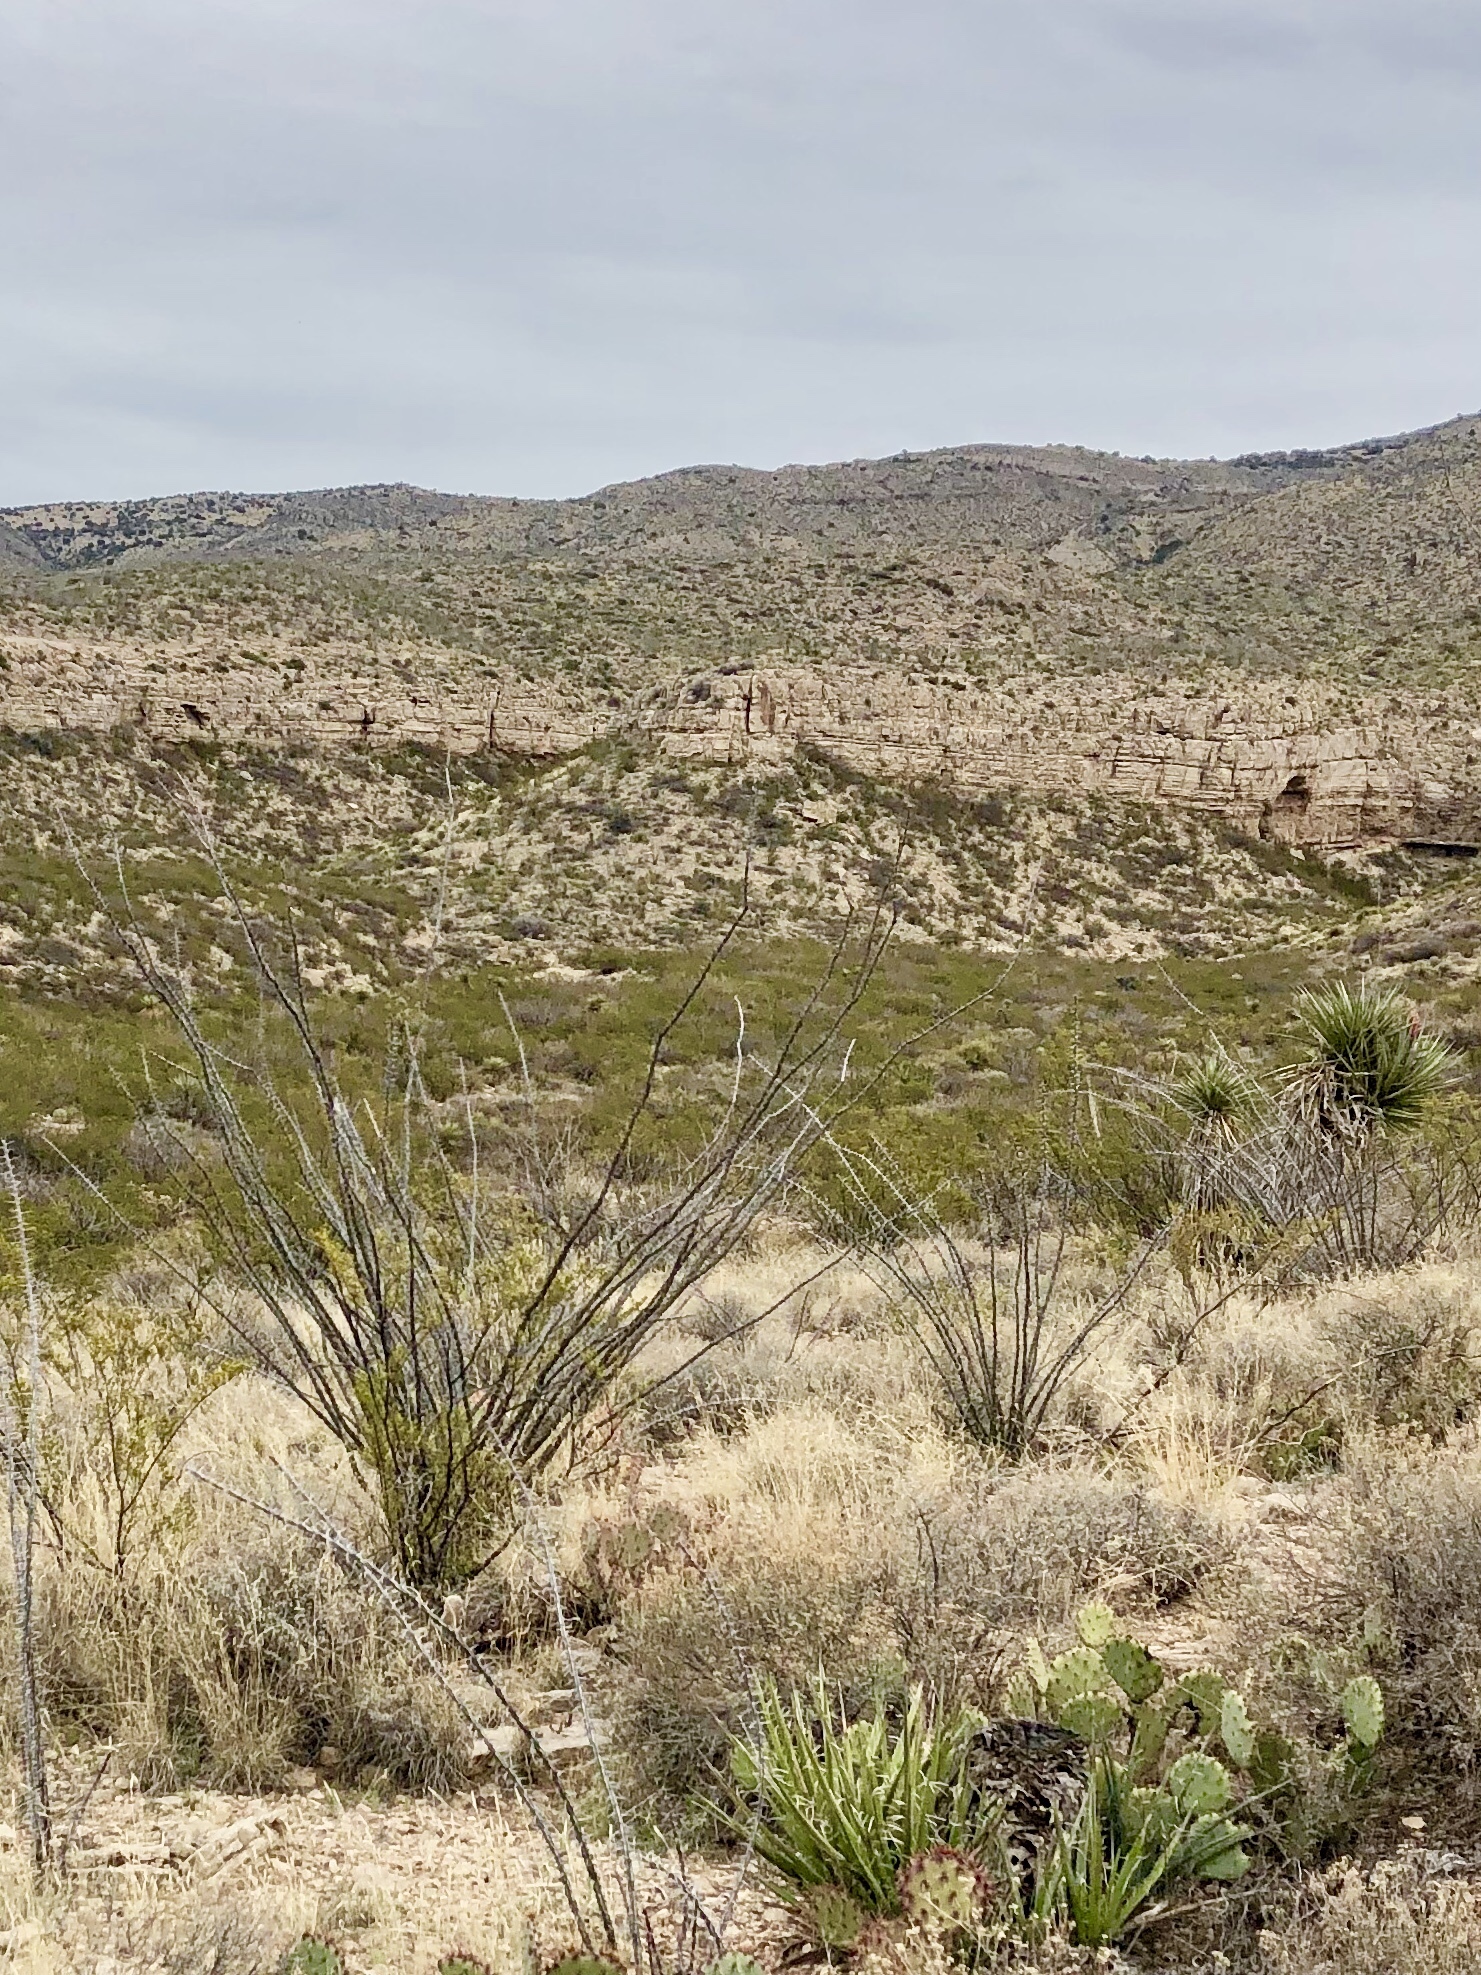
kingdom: Plantae
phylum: Tracheophyta
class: Magnoliopsida
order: Ericales
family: Fouquieriaceae
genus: Fouquieria
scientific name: Fouquieria splendens
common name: Vine-cactus
